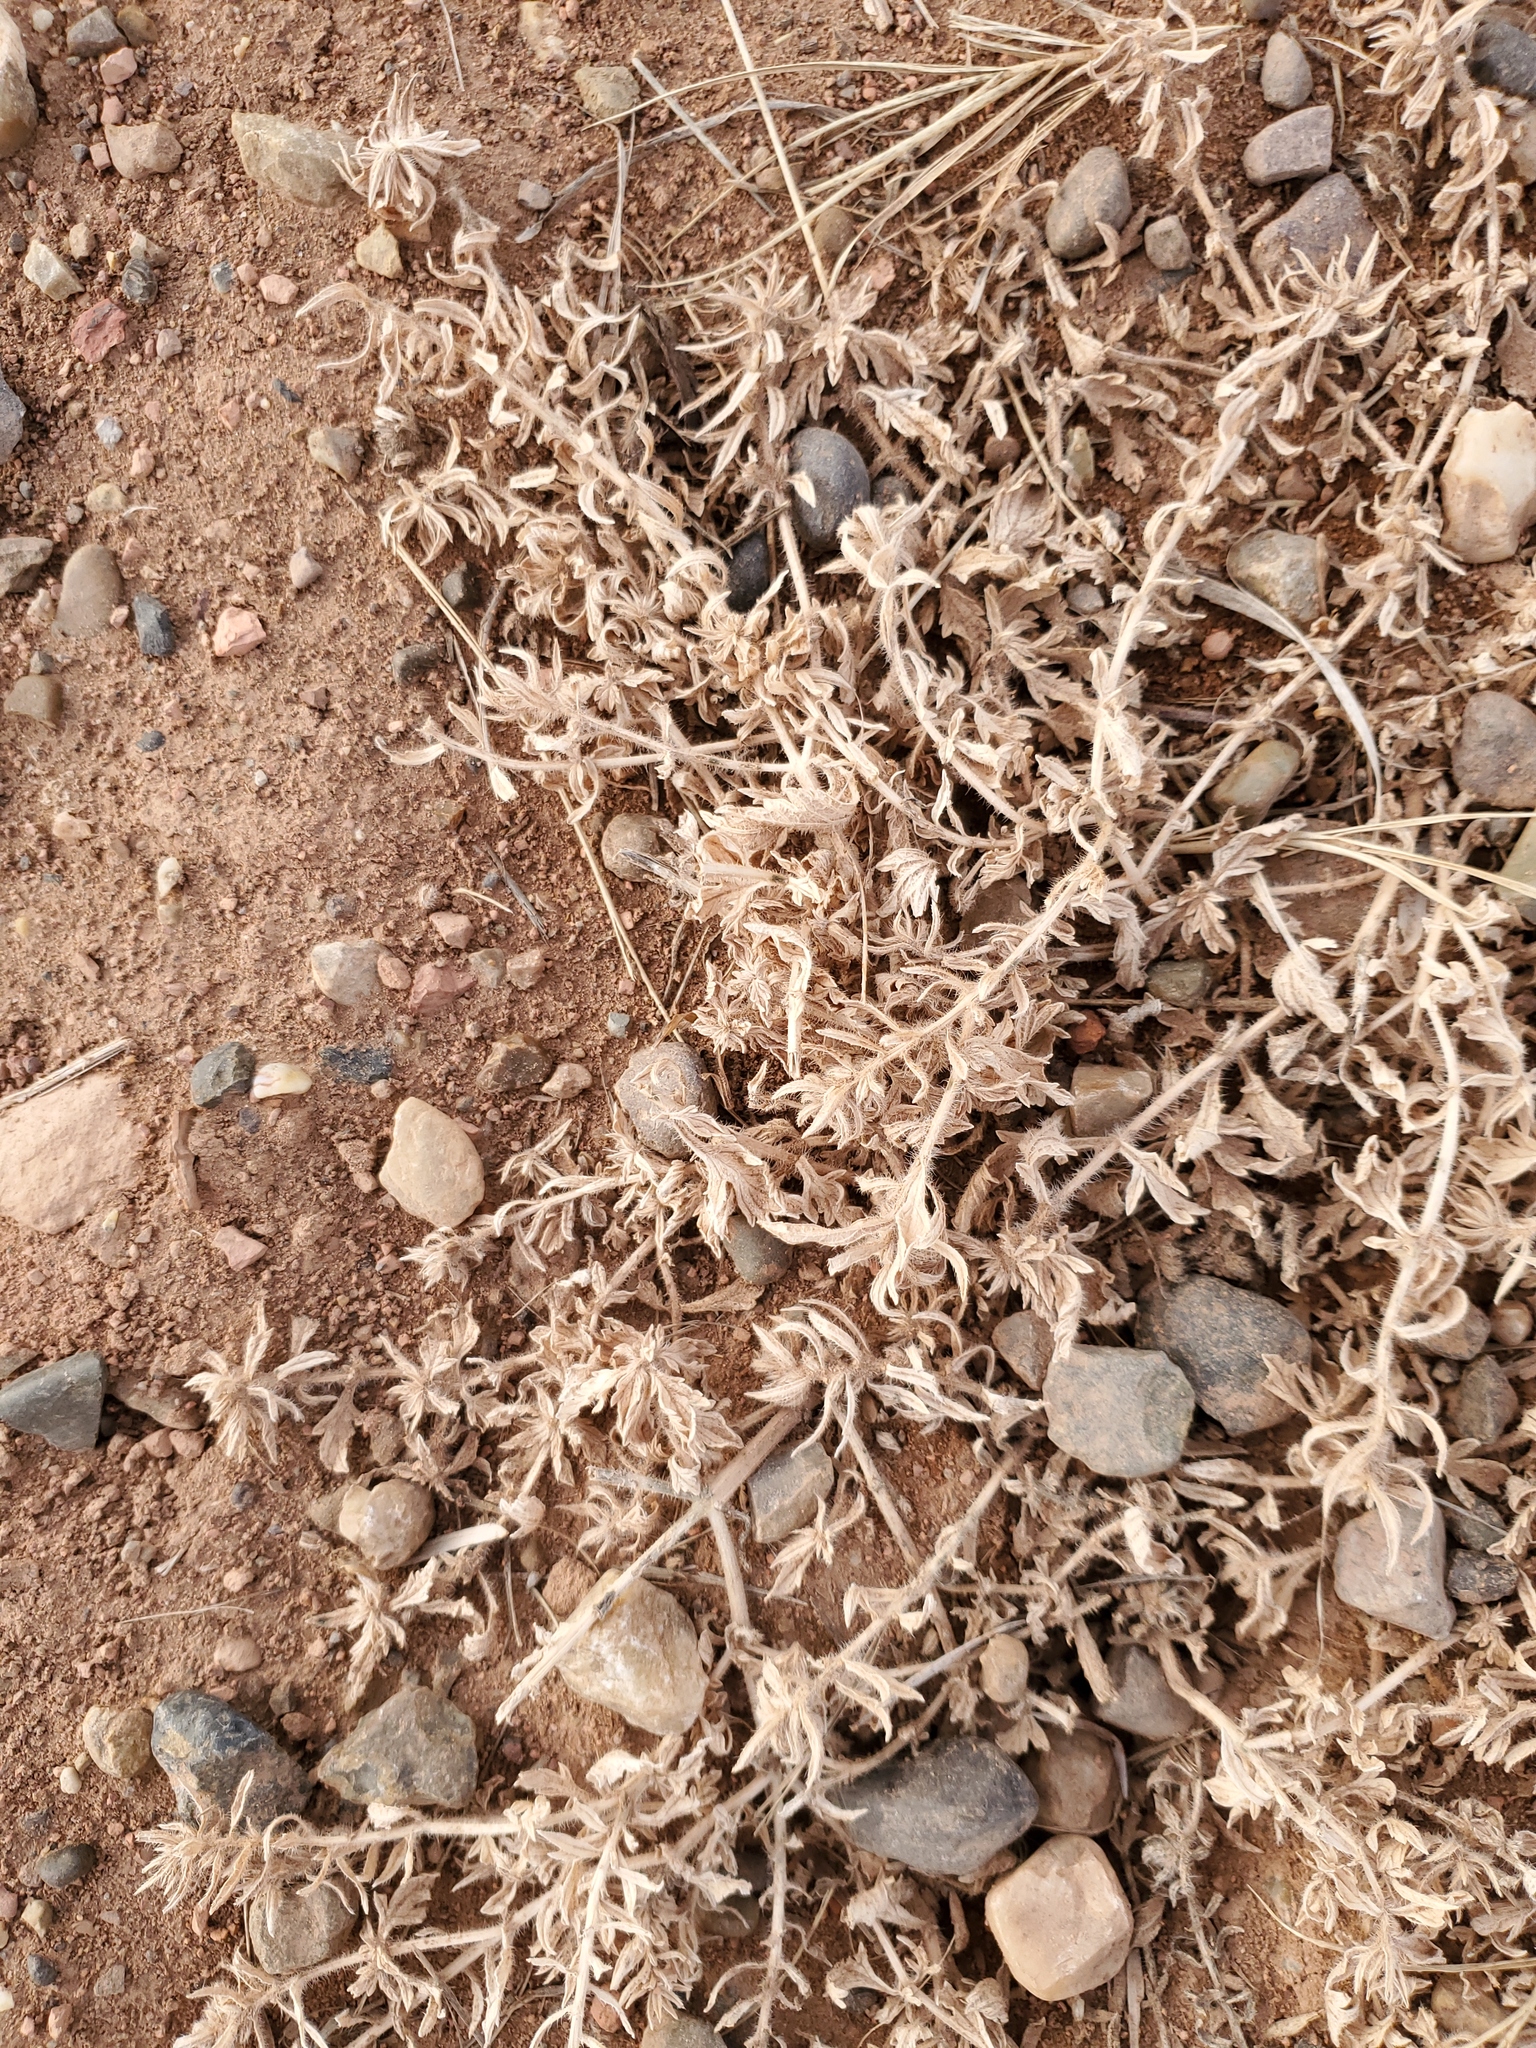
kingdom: Plantae
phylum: Tracheophyta
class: Magnoliopsida
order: Asterales
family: Asteraceae
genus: Heterotheca
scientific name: Heterotheca villosa
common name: Hairy false goldenaster
